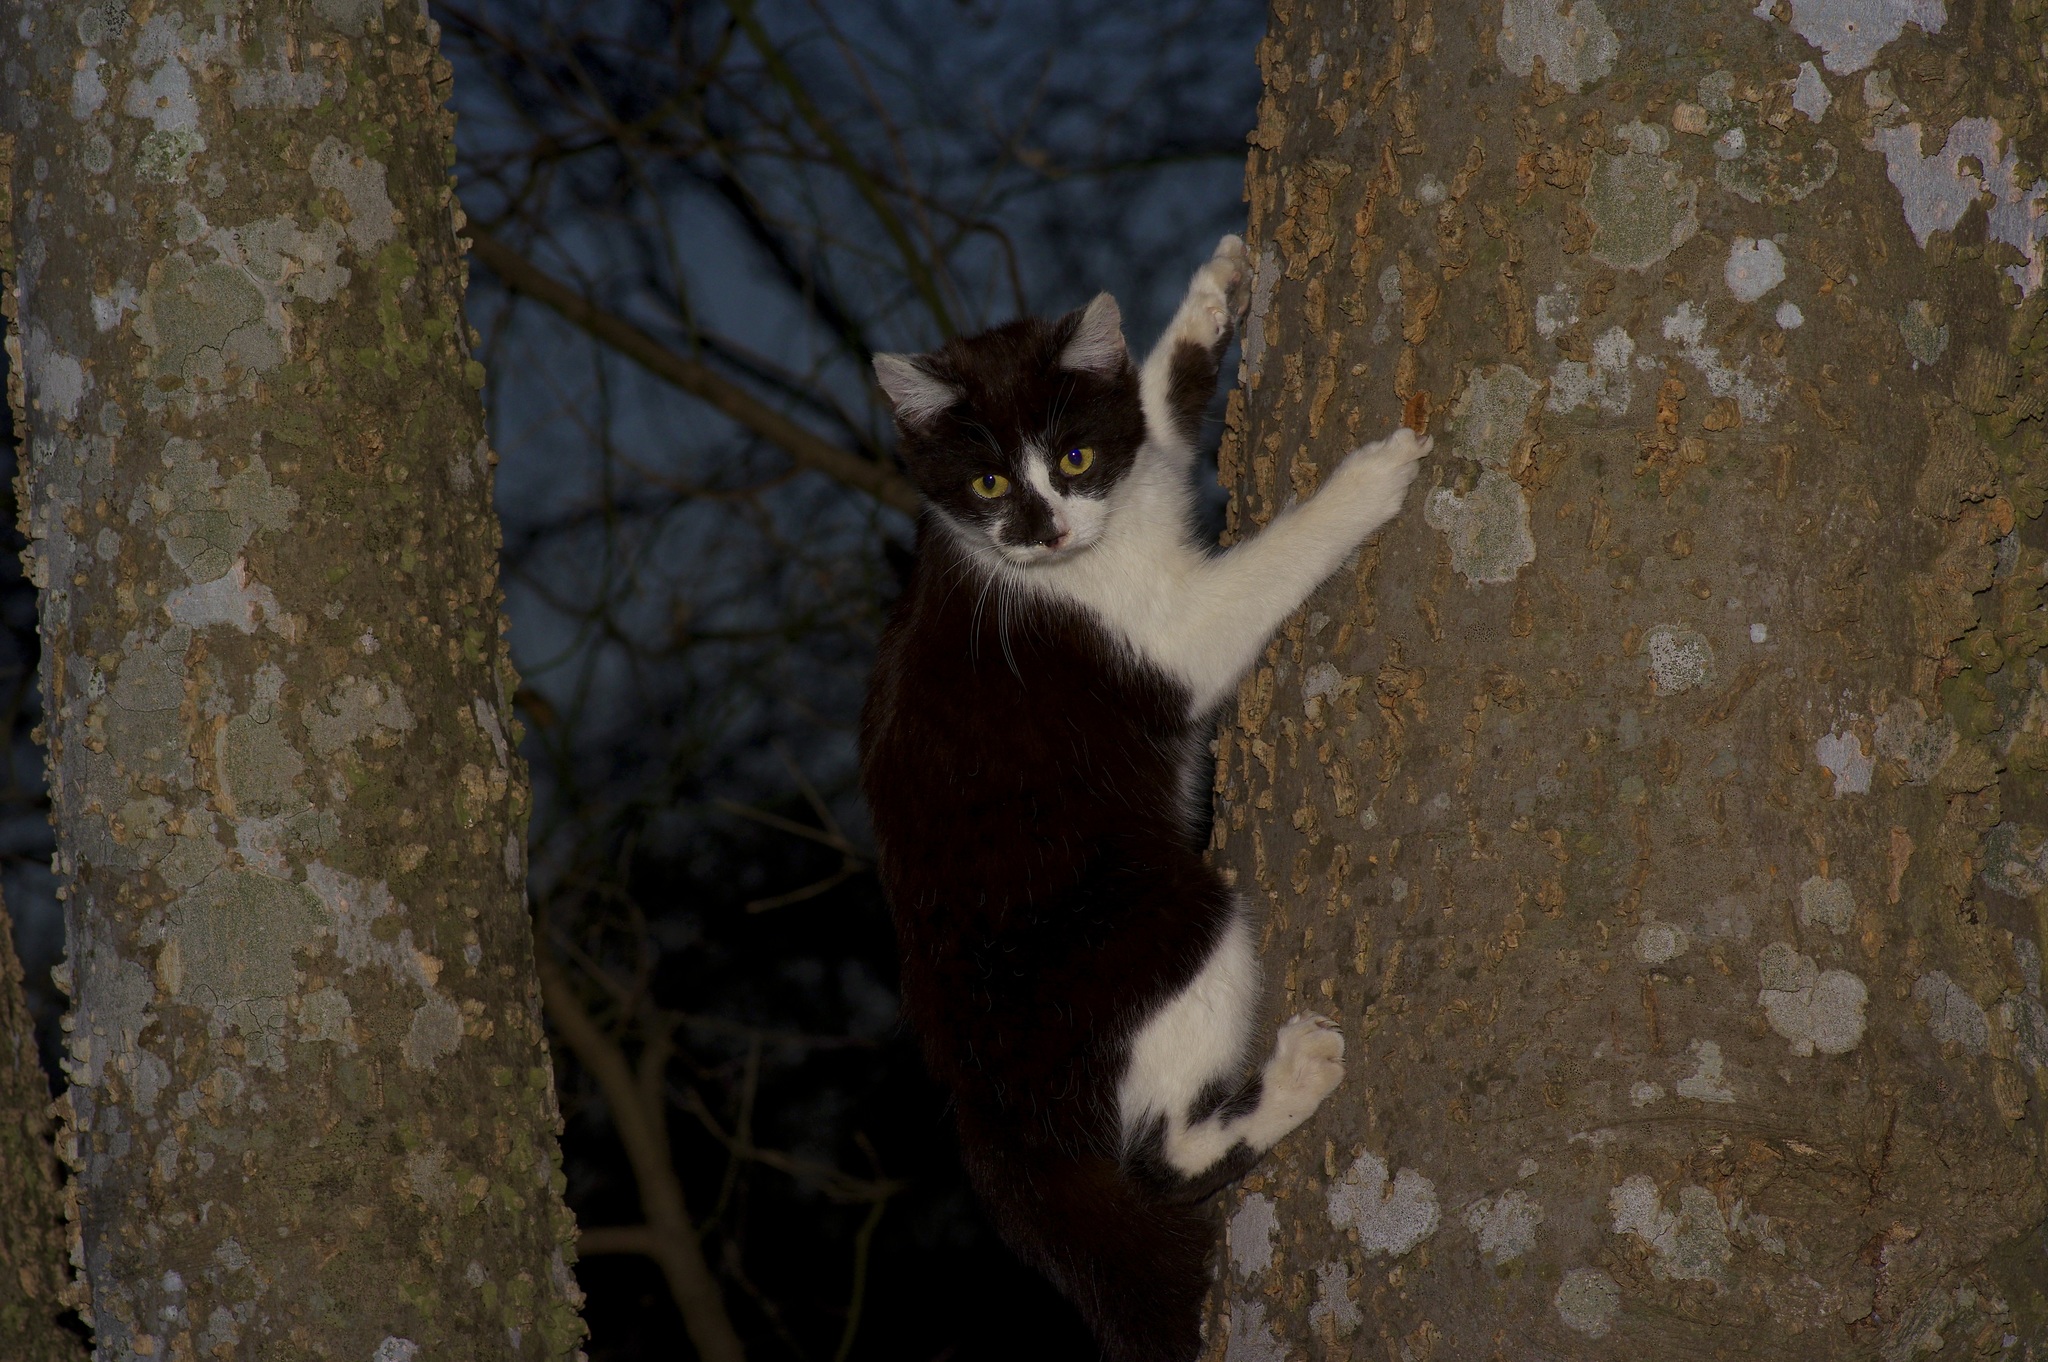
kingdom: Animalia
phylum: Chordata
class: Mammalia
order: Carnivora
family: Felidae
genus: Felis
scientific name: Felis catus
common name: Domestic cat
